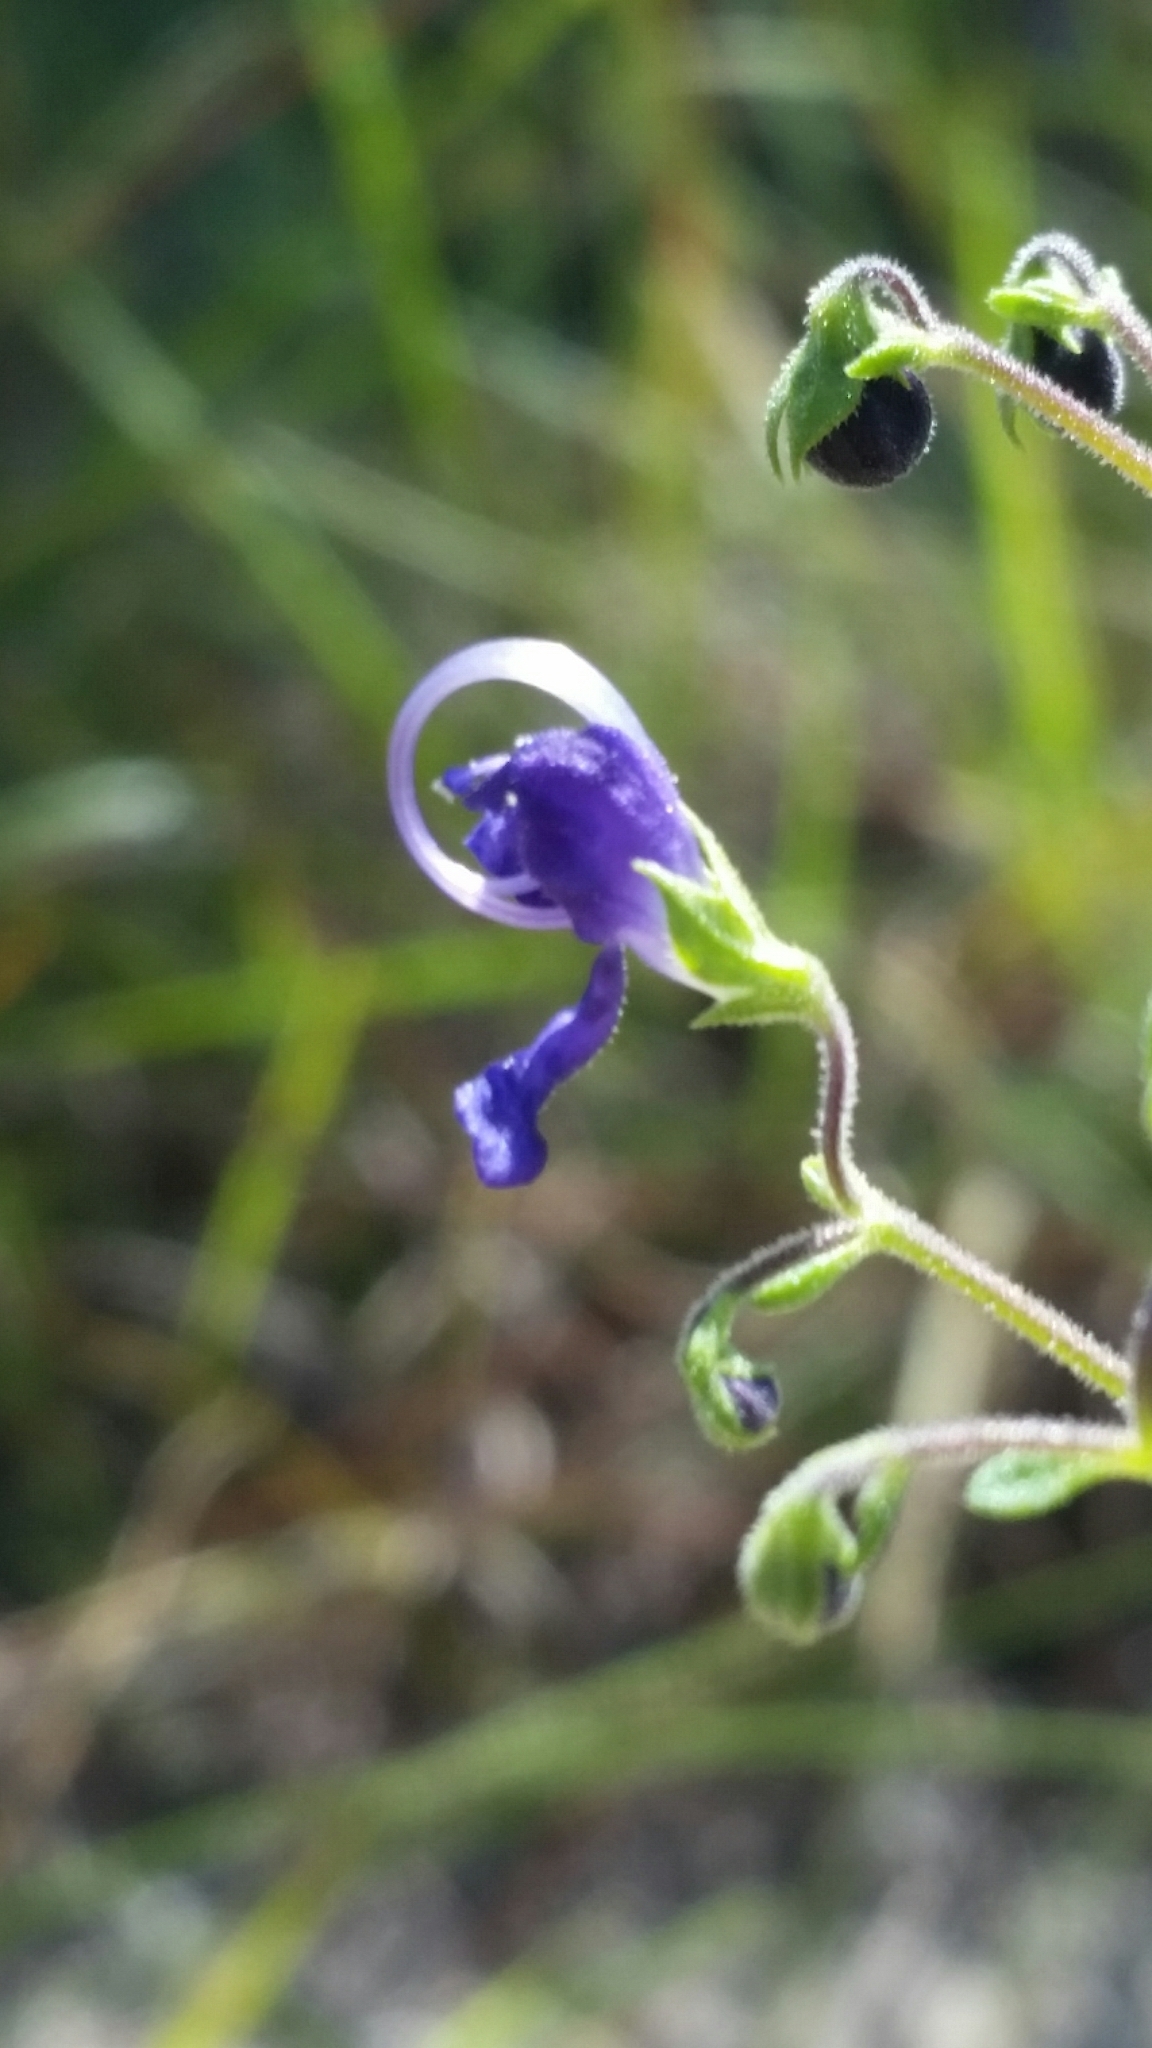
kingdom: Plantae
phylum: Tracheophyta
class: Magnoliopsida
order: Lamiales
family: Lamiaceae
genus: Trichostema
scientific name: Trichostema gracile
